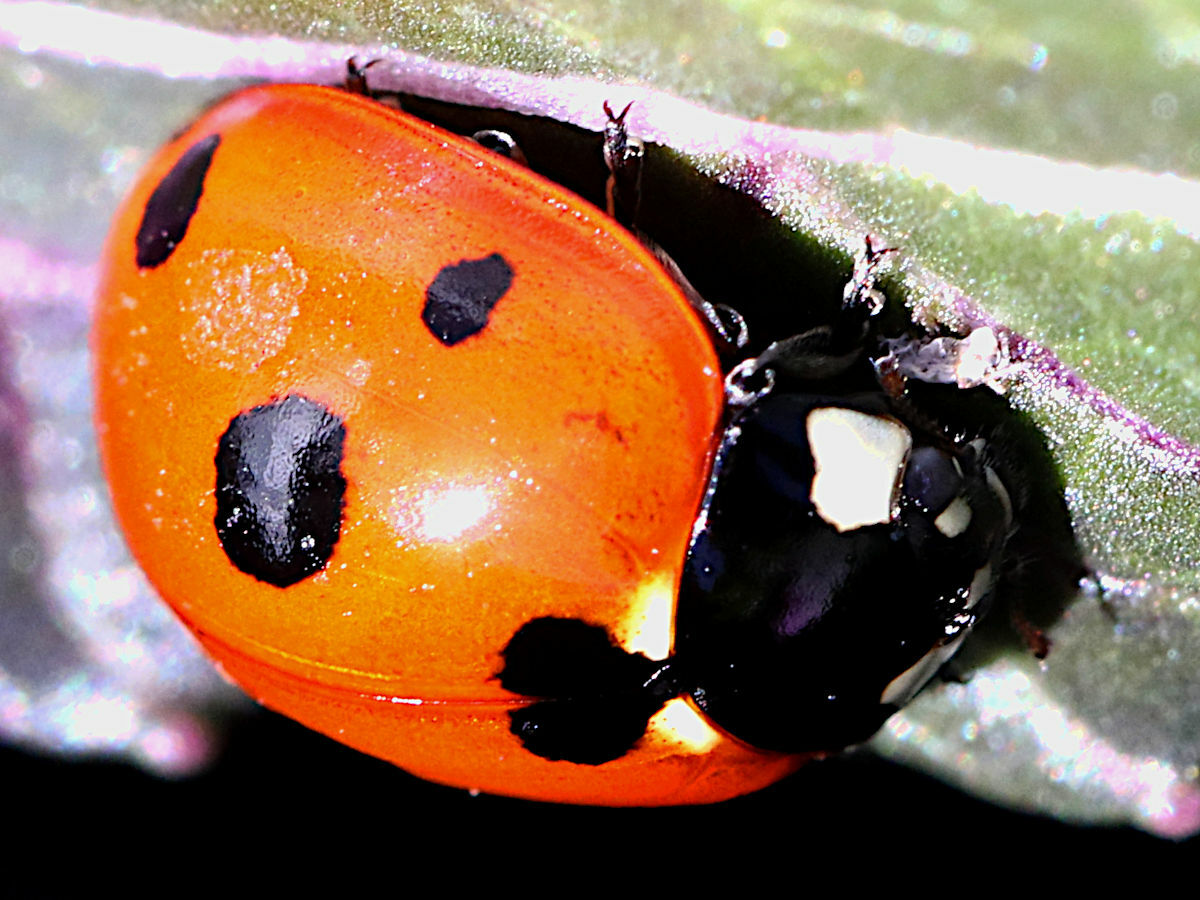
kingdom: Animalia
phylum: Arthropoda
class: Insecta
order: Coleoptera
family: Coccinellidae
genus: Coccinella
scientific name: Coccinella septempunctata
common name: Sevenspotted lady beetle
